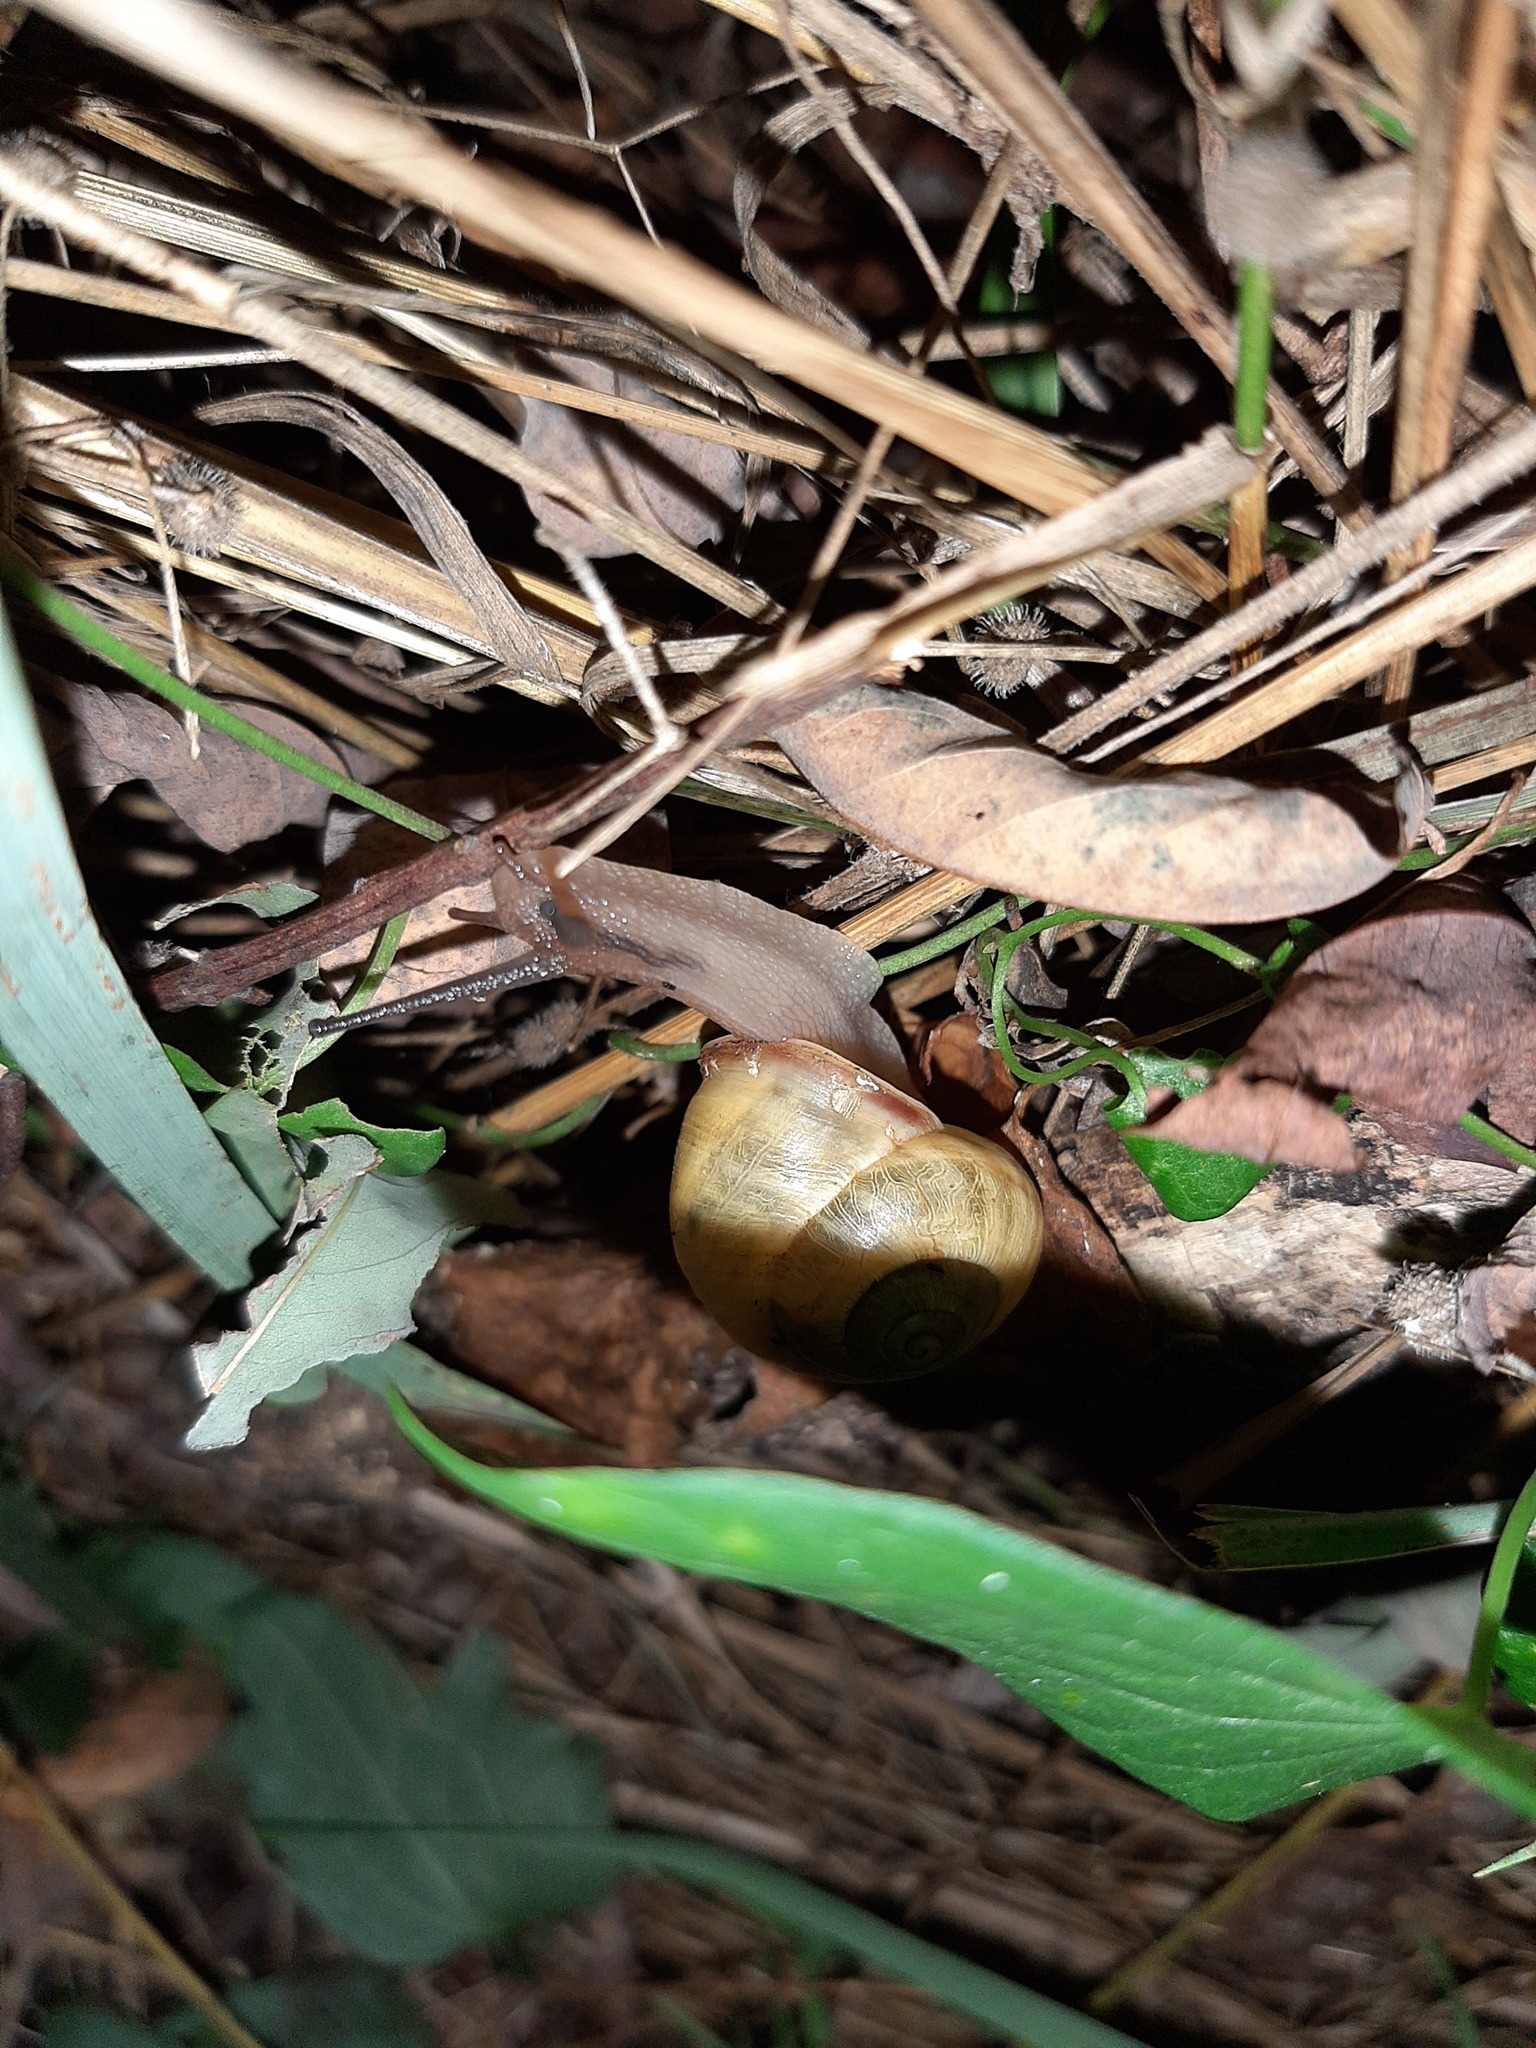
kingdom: Animalia
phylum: Mollusca
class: Gastropoda
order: Stylommatophora
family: Helicidae
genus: Cepaea
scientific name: Cepaea nemoralis
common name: Grovesnail
